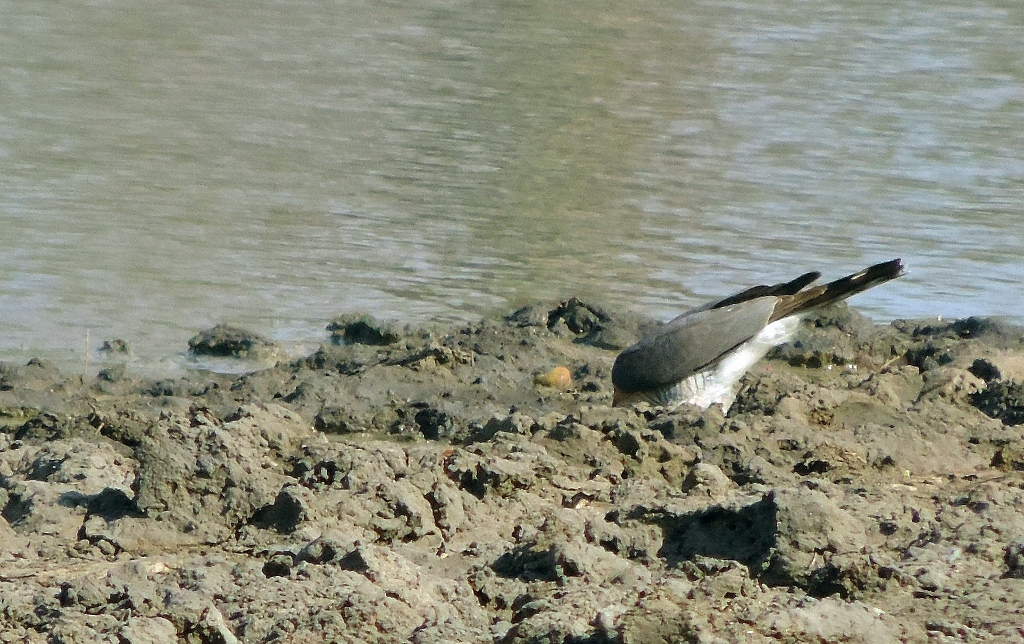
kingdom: Animalia
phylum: Chordata
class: Aves
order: Accipitriformes
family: Accipitridae
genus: Accipiter
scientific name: Accipiter minullus
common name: Little sparrowhawk
